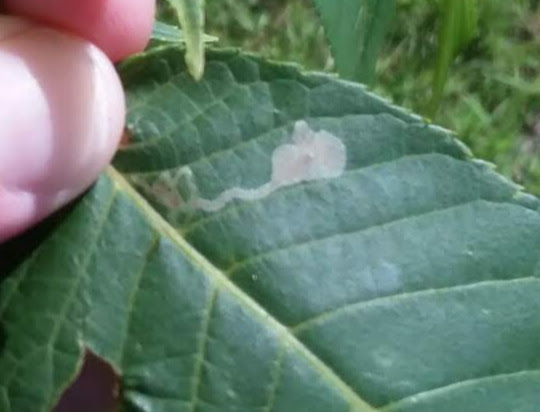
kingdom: Animalia
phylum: Arthropoda
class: Insecta
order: Lepidoptera
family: Gracillariidae
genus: Caloptilia
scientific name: Caloptilia blandella
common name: Walnut caloptilia moth
